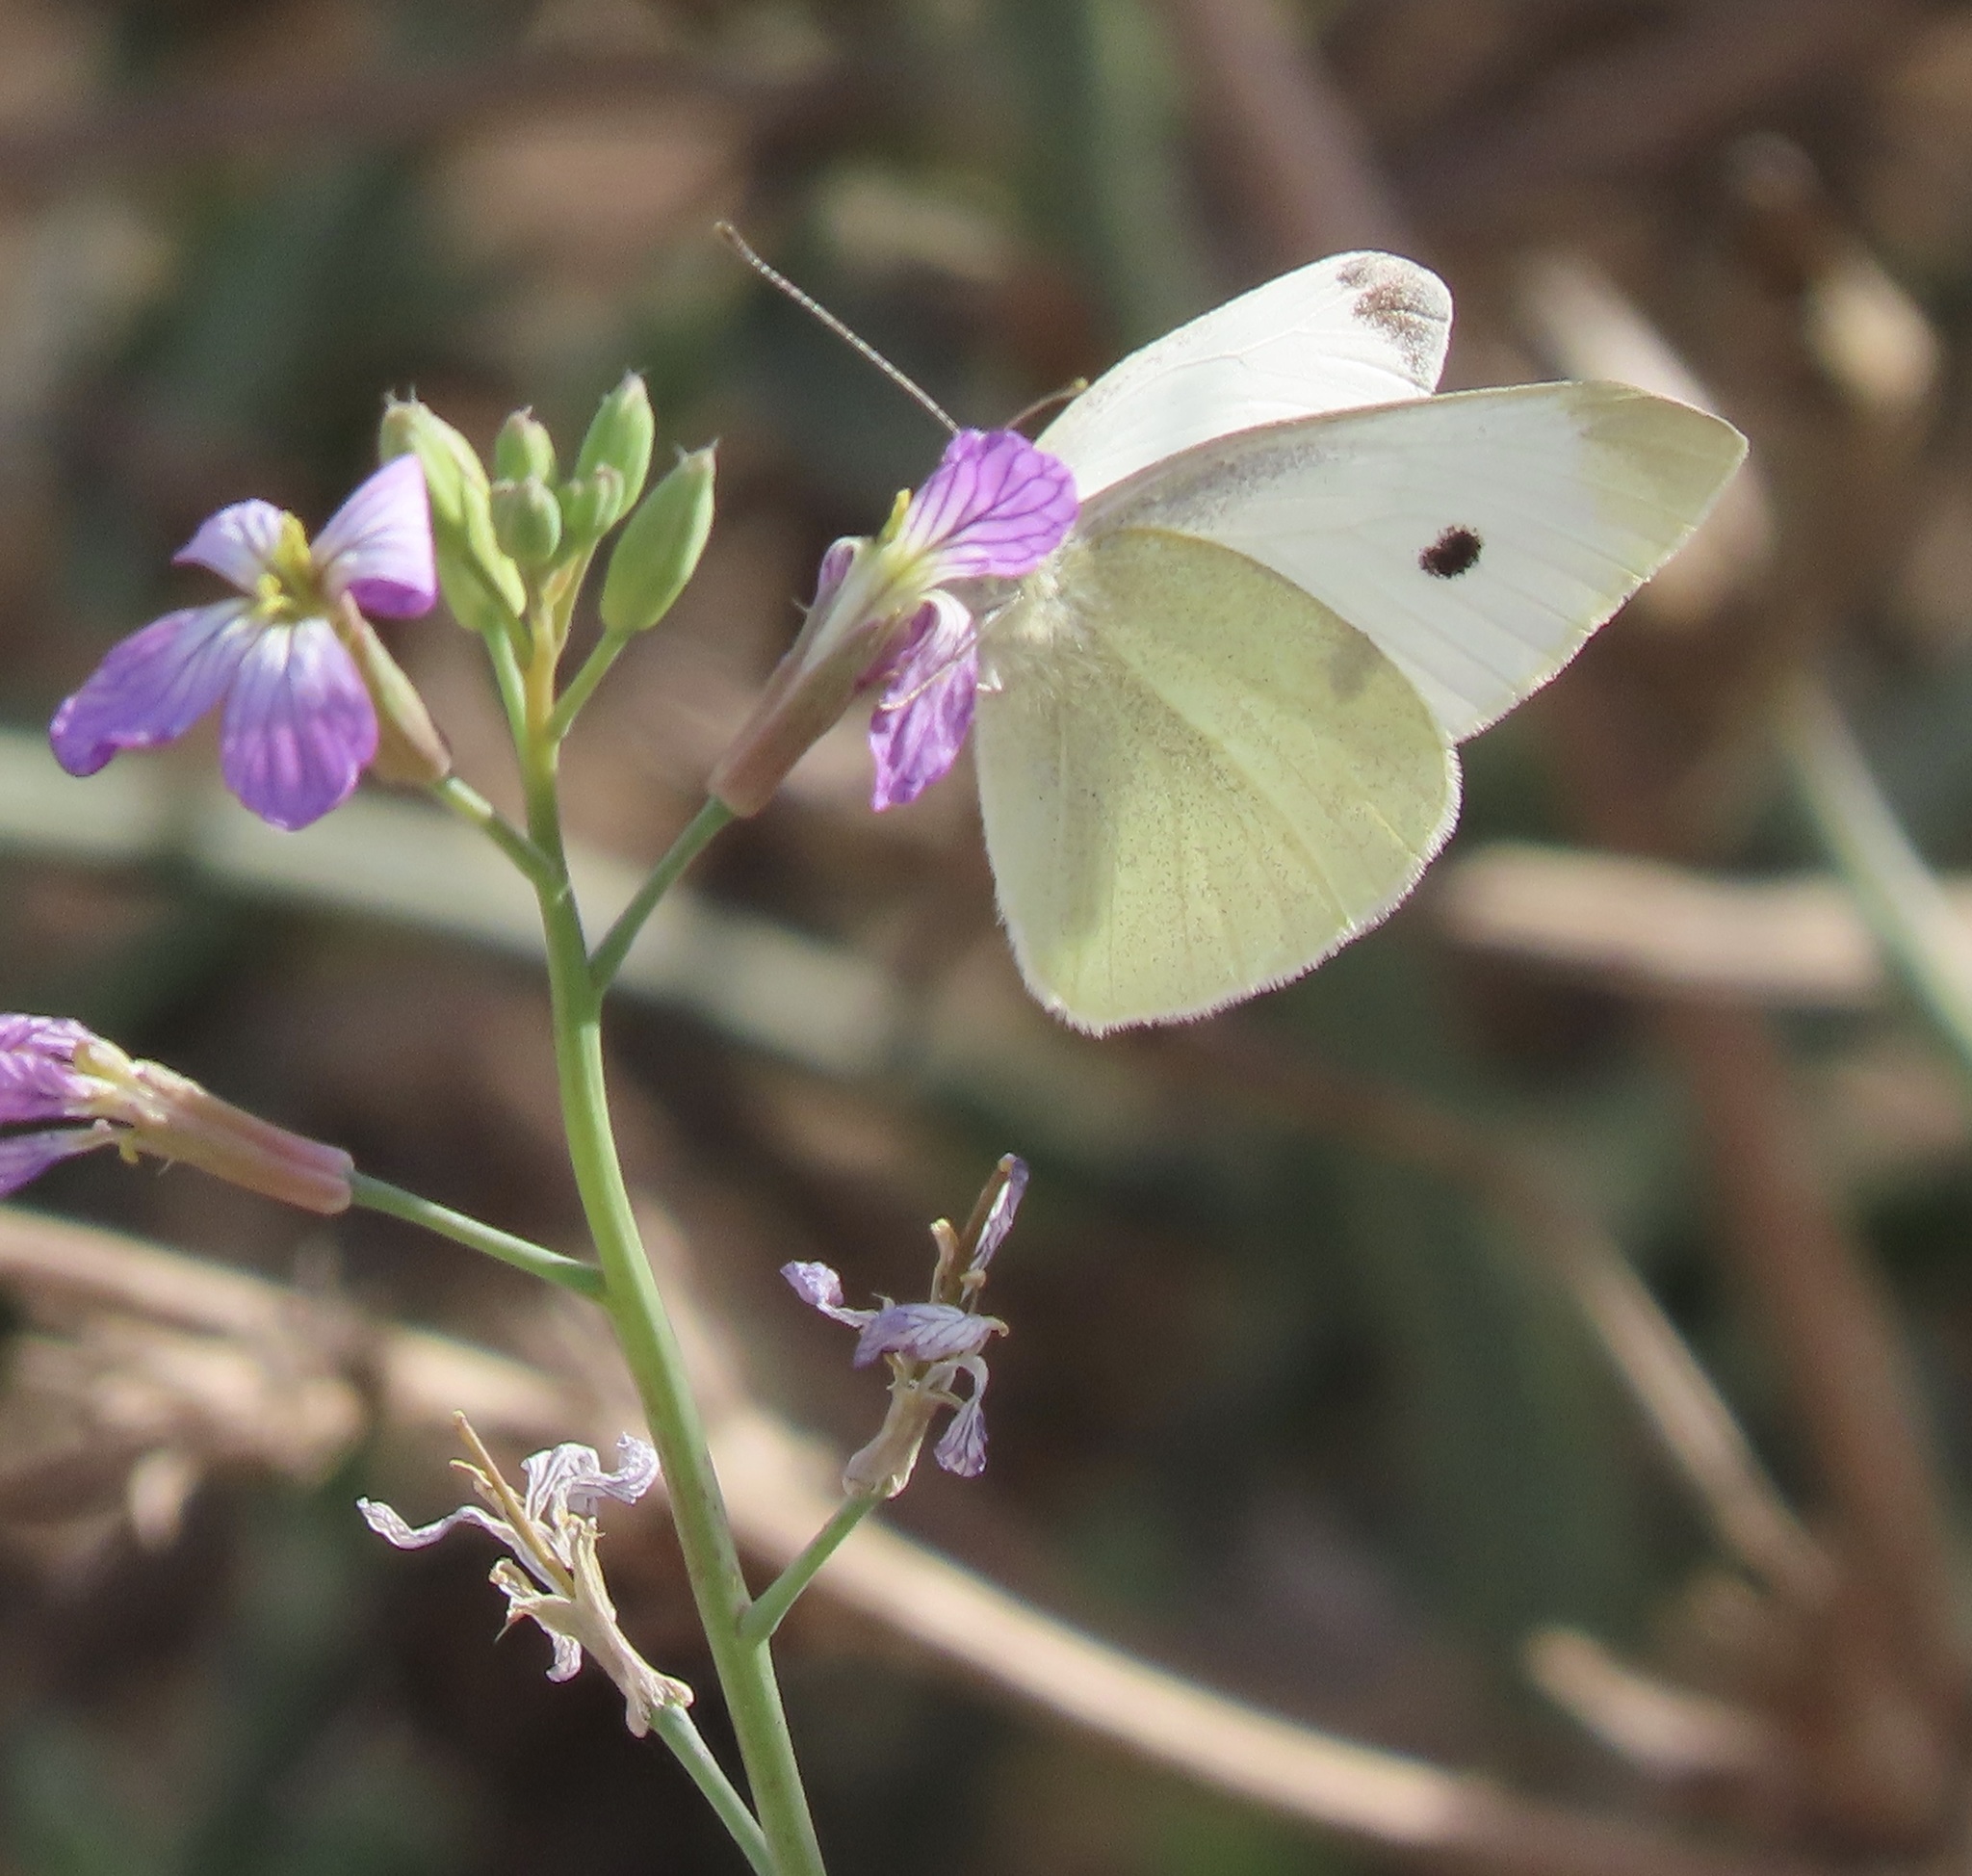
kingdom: Animalia
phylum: Arthropoda
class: Insecta
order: Lepidoptera
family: Pieridae
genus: Pieris
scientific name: Pieris rapae
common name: Small white
